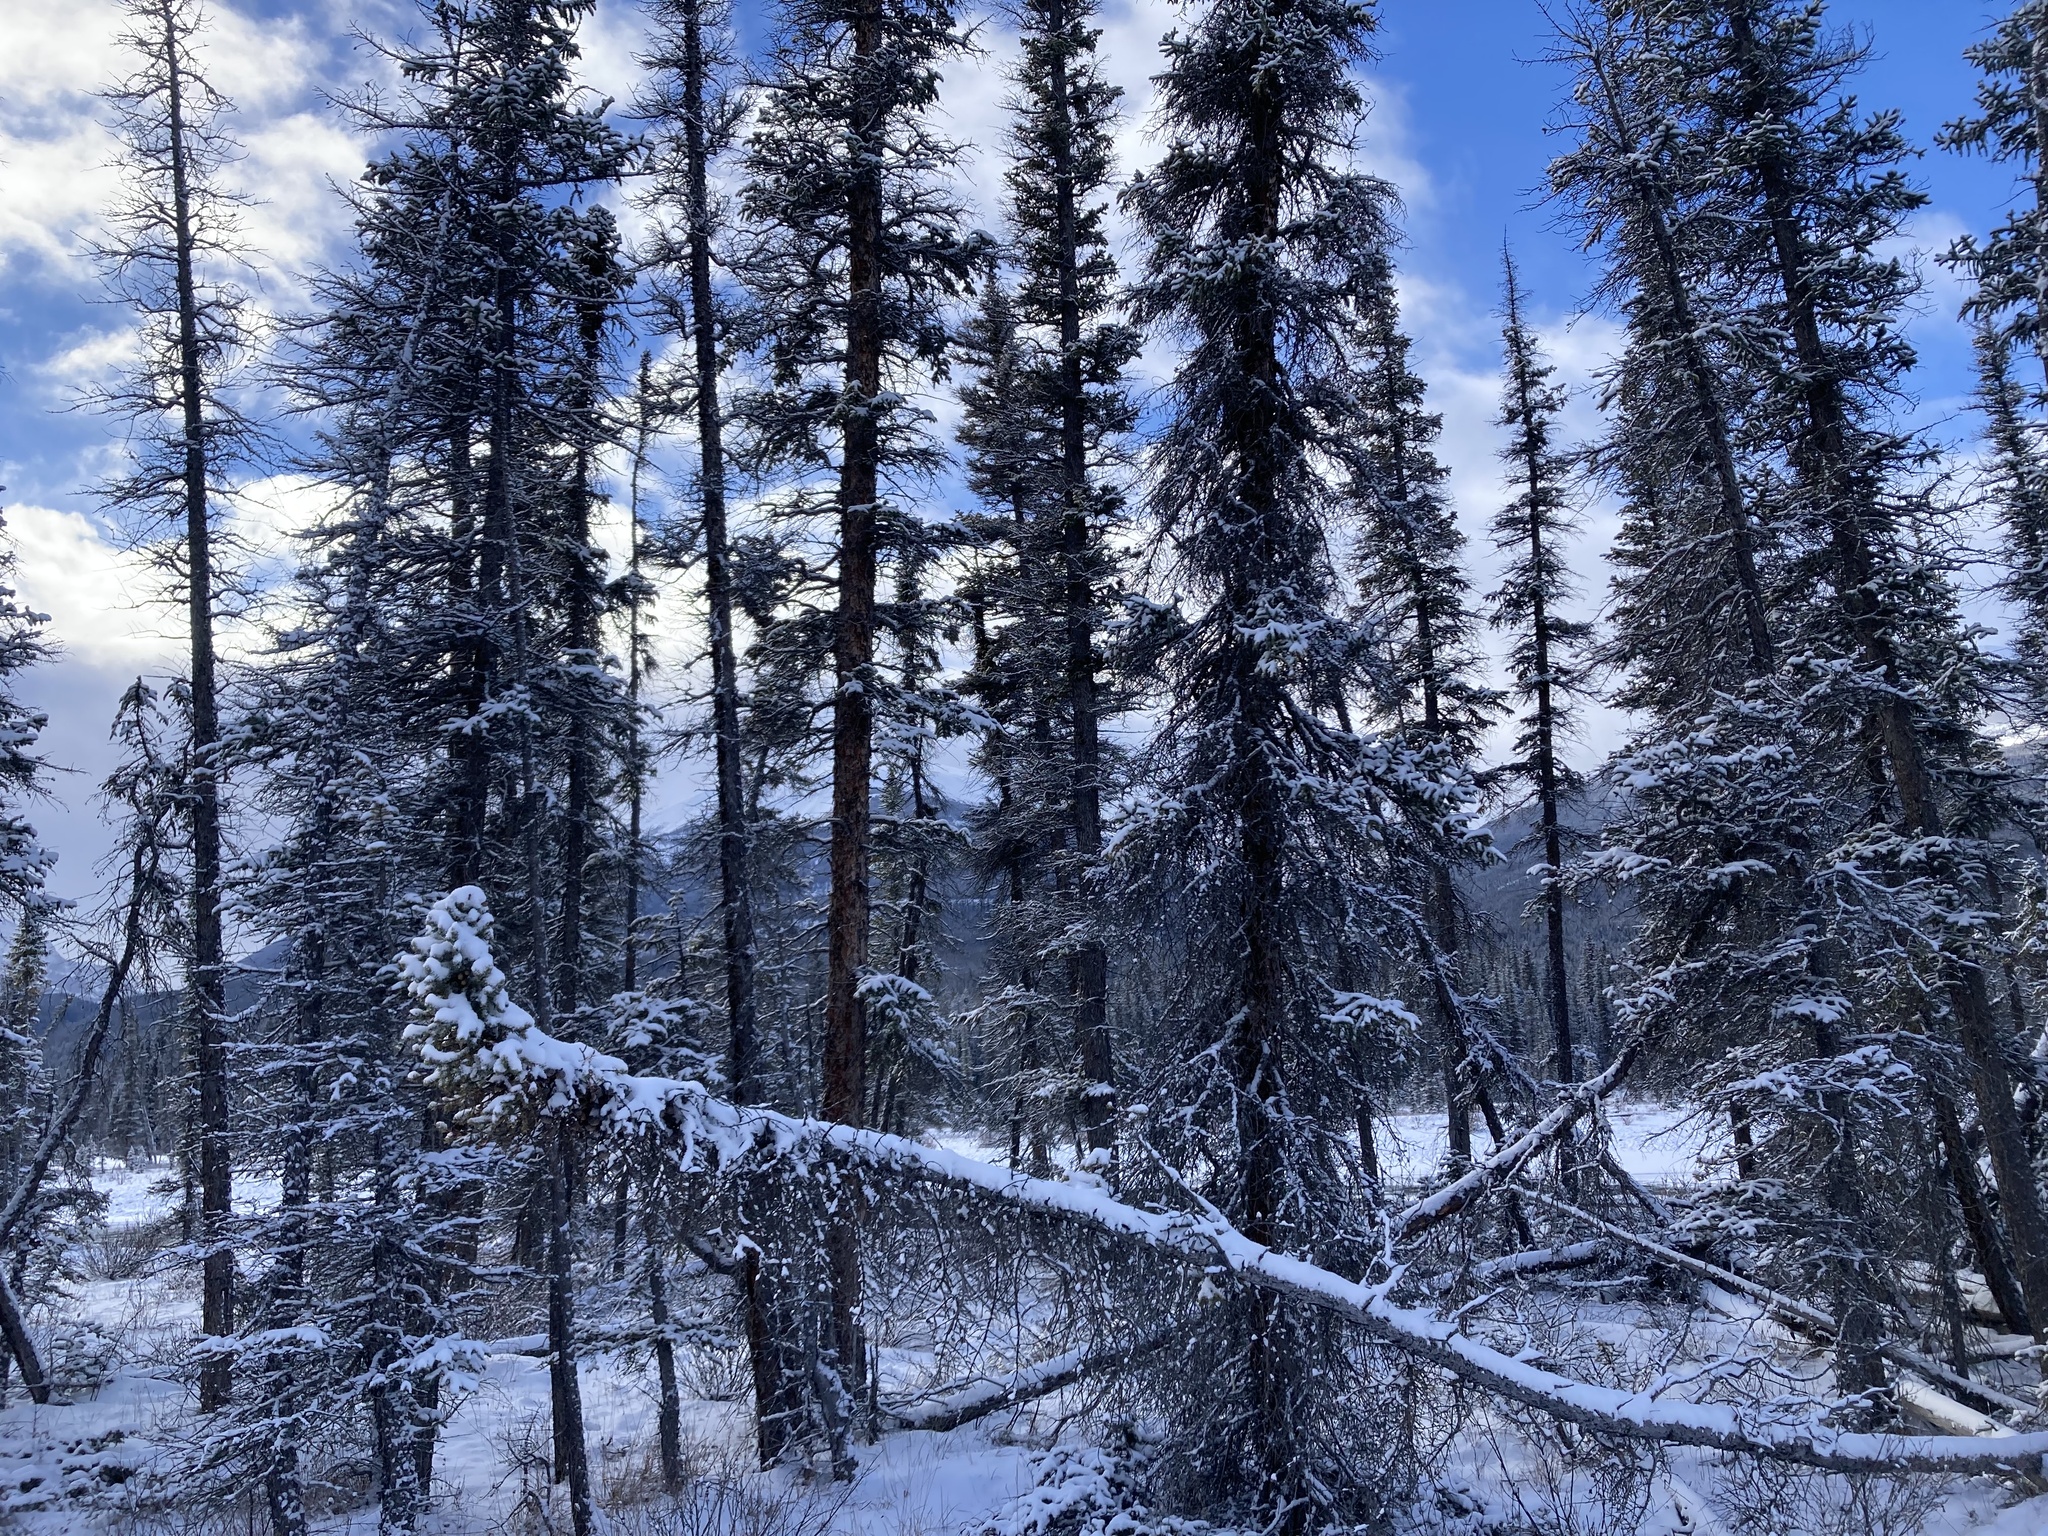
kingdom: Plantae
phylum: Tracheophyta
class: Pinopsida
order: Pinales
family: Pinaceae
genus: Picea
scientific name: Picea mariana
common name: Black spruce
